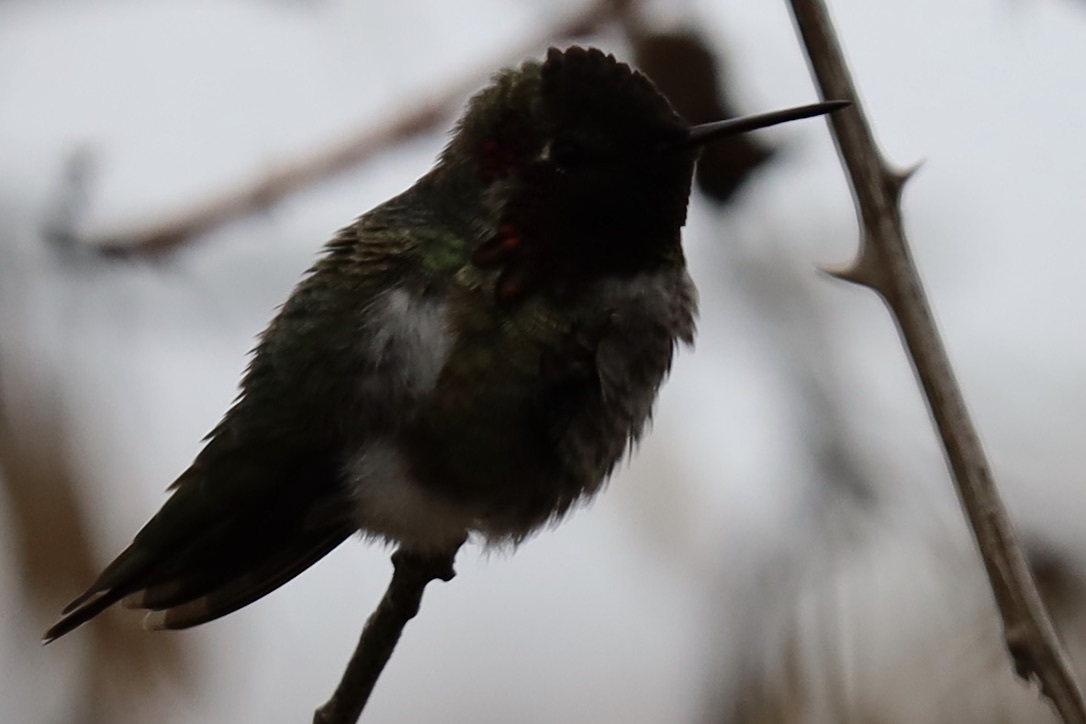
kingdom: Animalia
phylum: Chordata
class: Aves
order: Apodiformes
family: Trochilidae
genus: Calypte
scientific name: Calypte anna
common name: Anna's hummingbird
